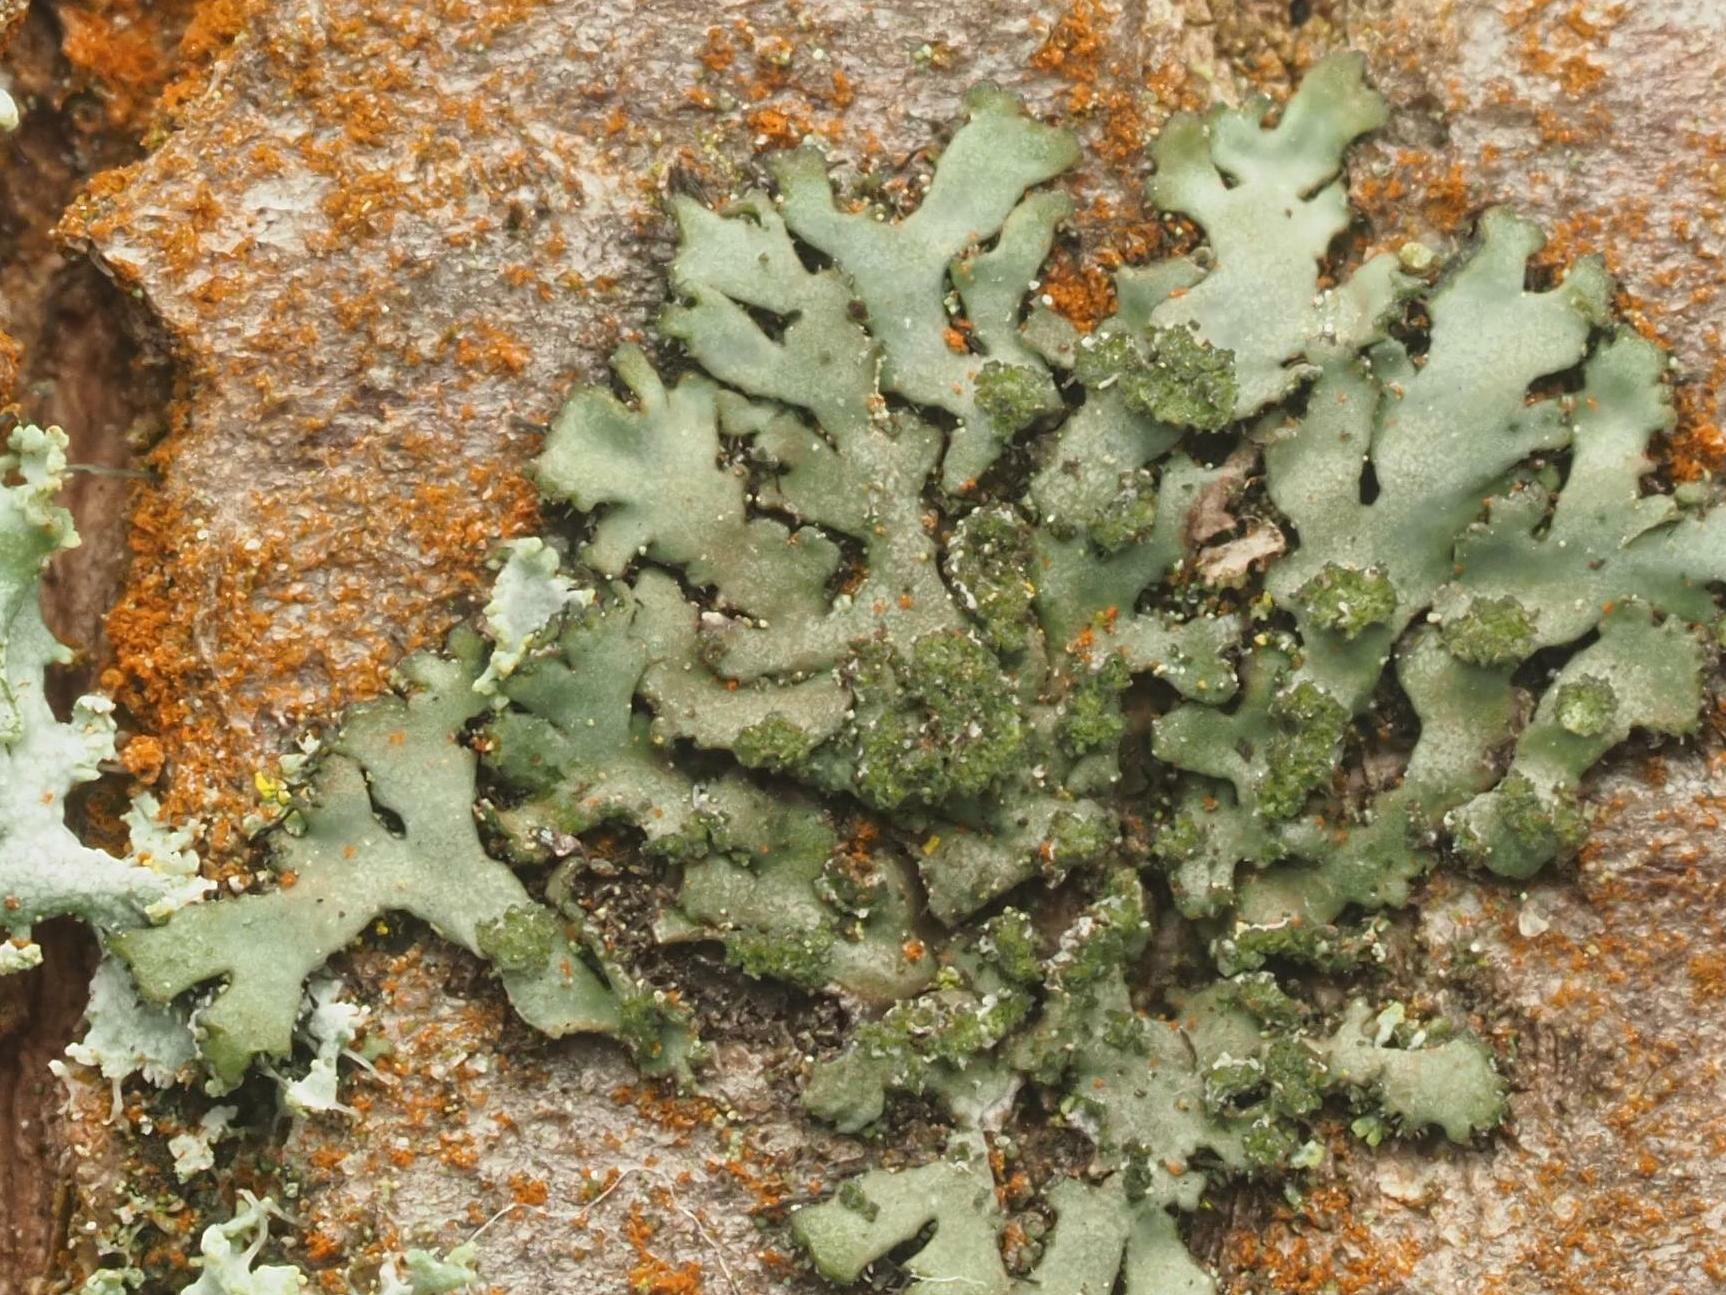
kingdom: Fungi
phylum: Ascomycota
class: Lecanoromycetes
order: Caliciales
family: Physciaceae
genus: Phaeophyscia
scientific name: Phaeophyscia orbicularis
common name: Mealy shadow lichen
